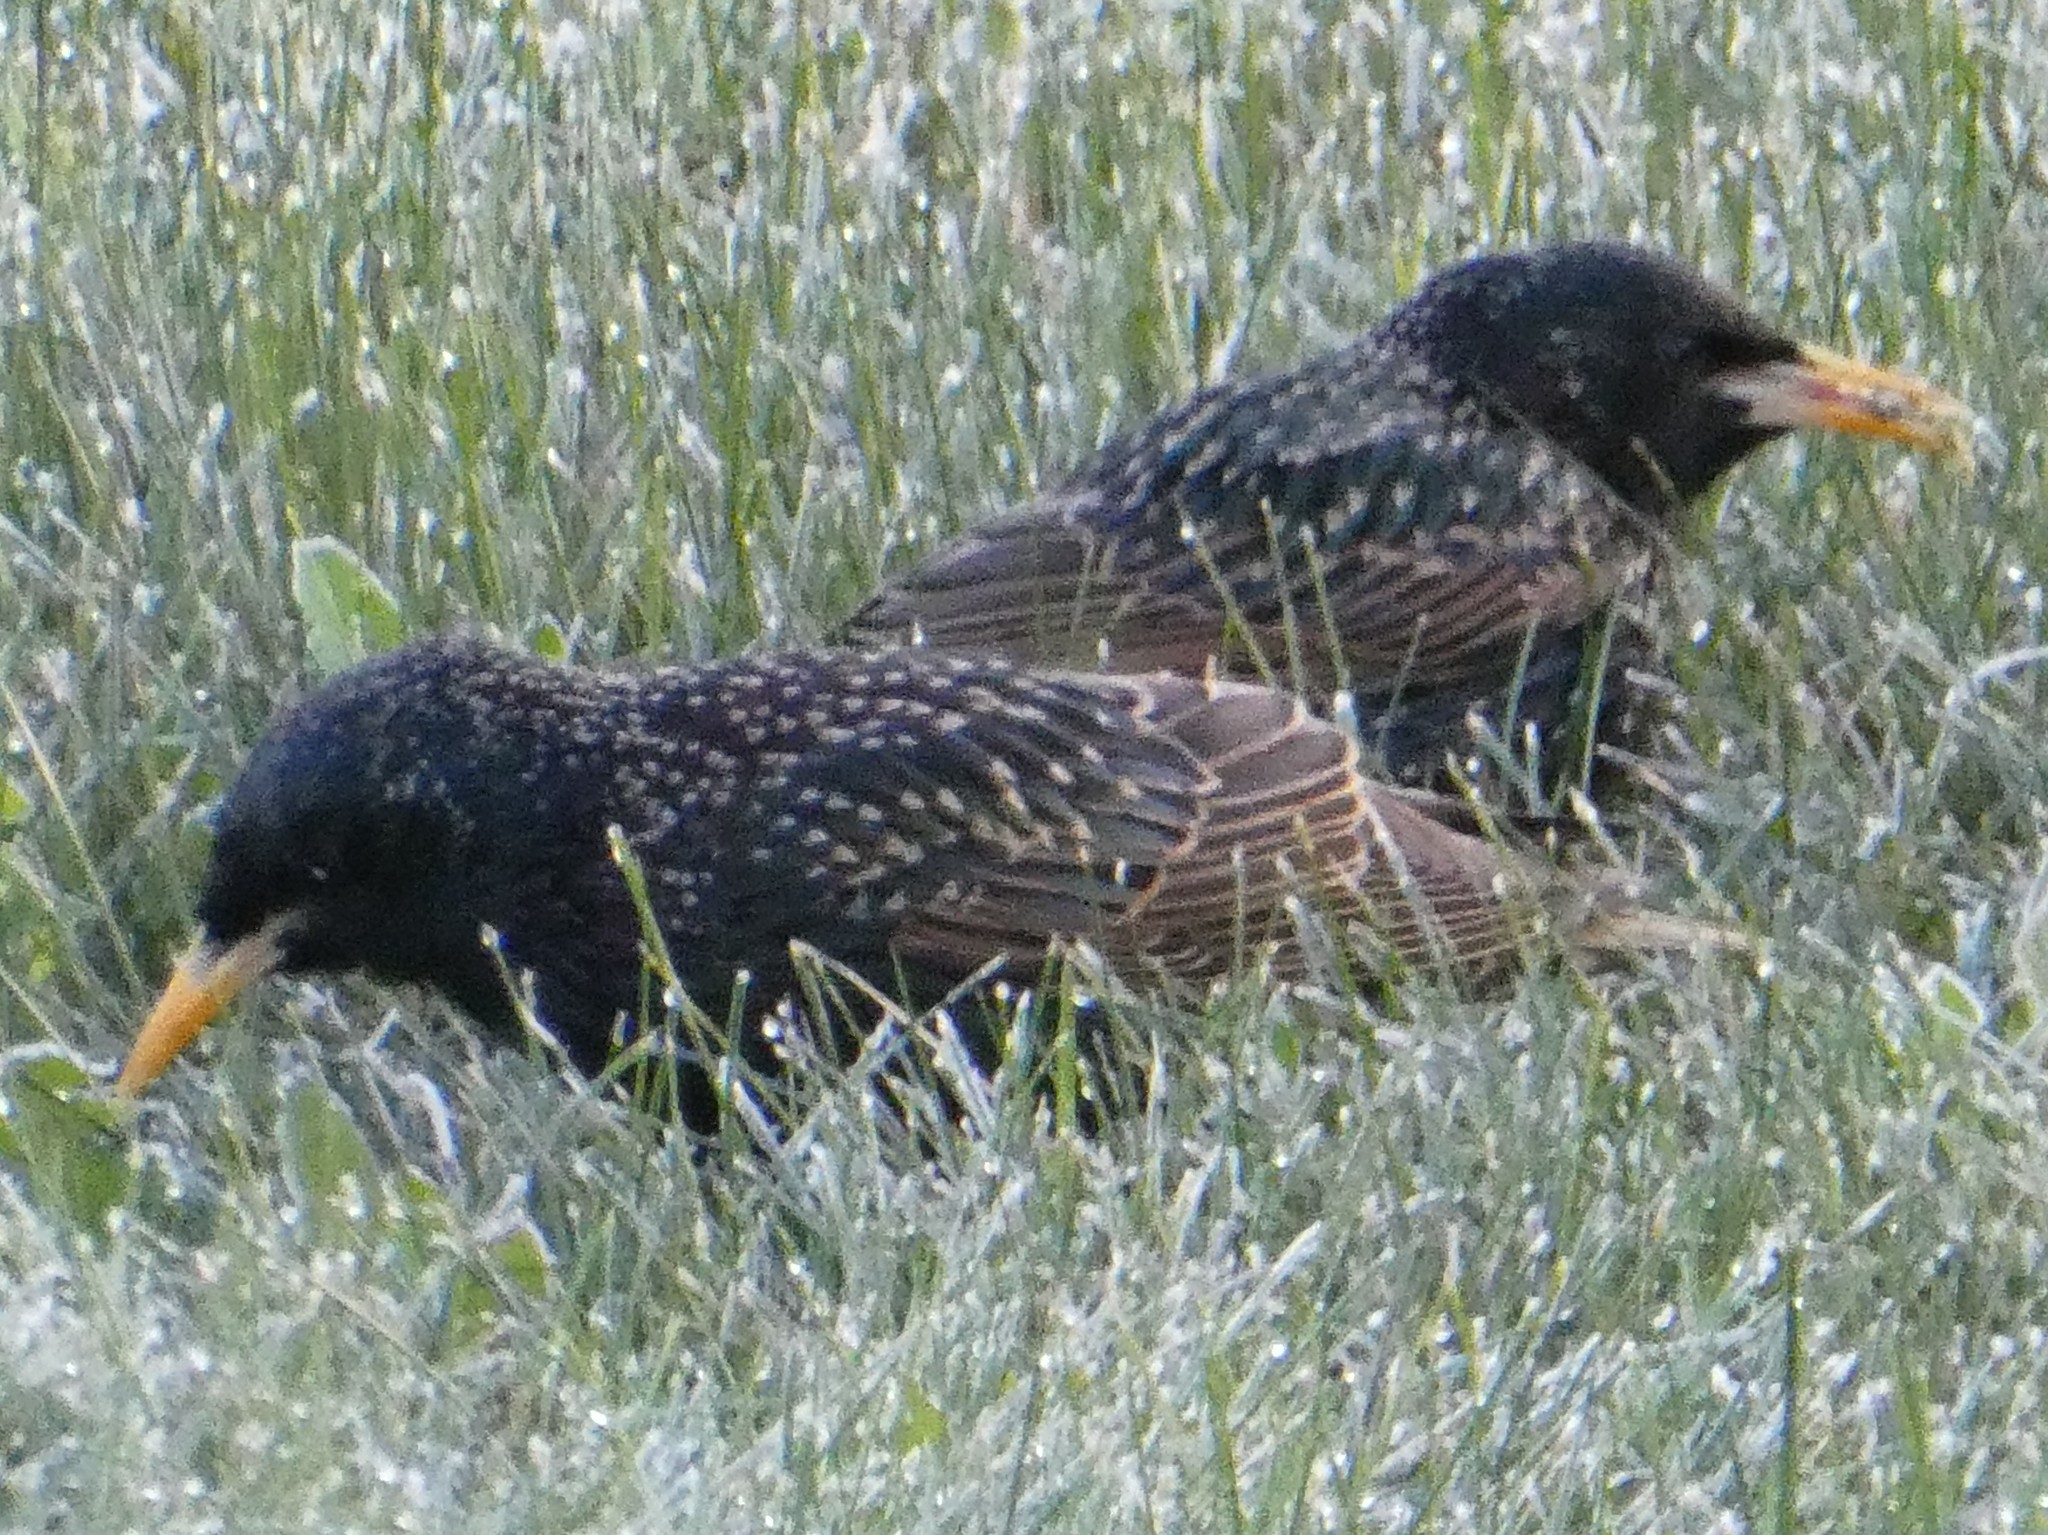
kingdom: Animalia
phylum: Chordata
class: Aves
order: Passeriformes
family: Sturnidae
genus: Sturnus
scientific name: Sturnus vulgaris
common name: Common starling
